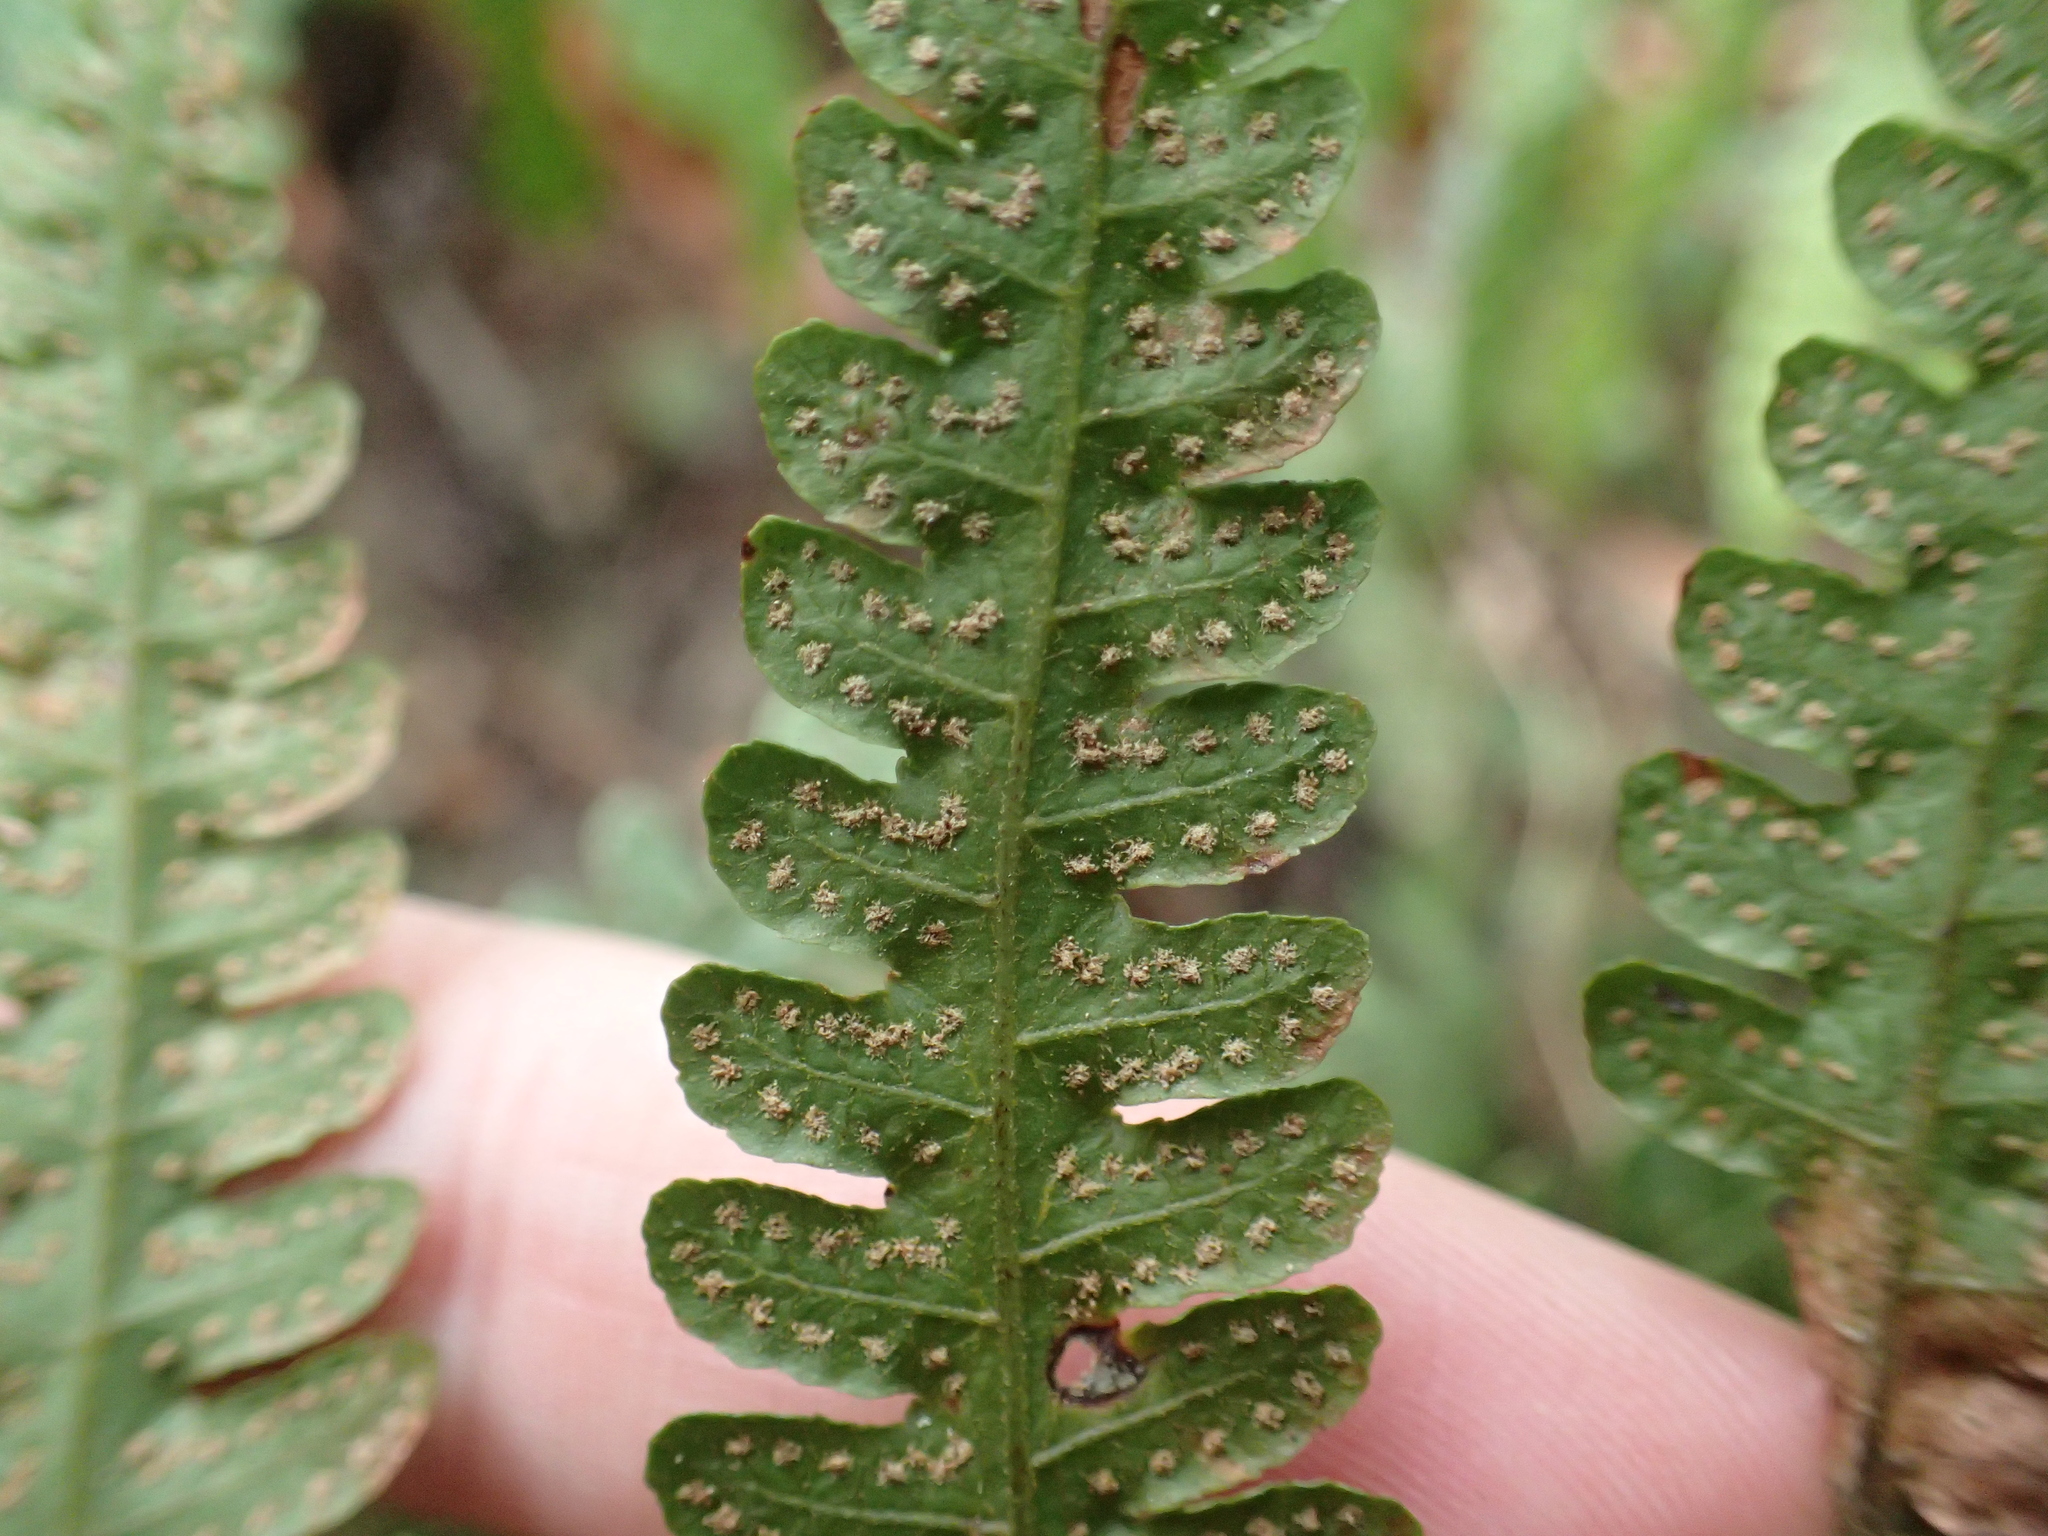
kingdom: Plantae
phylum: Tracheophyta
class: Polypodiopsida
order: Polypodiales
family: Dryopteridaceae
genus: Pleocnemia
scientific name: Pleocnemia submembranacea
